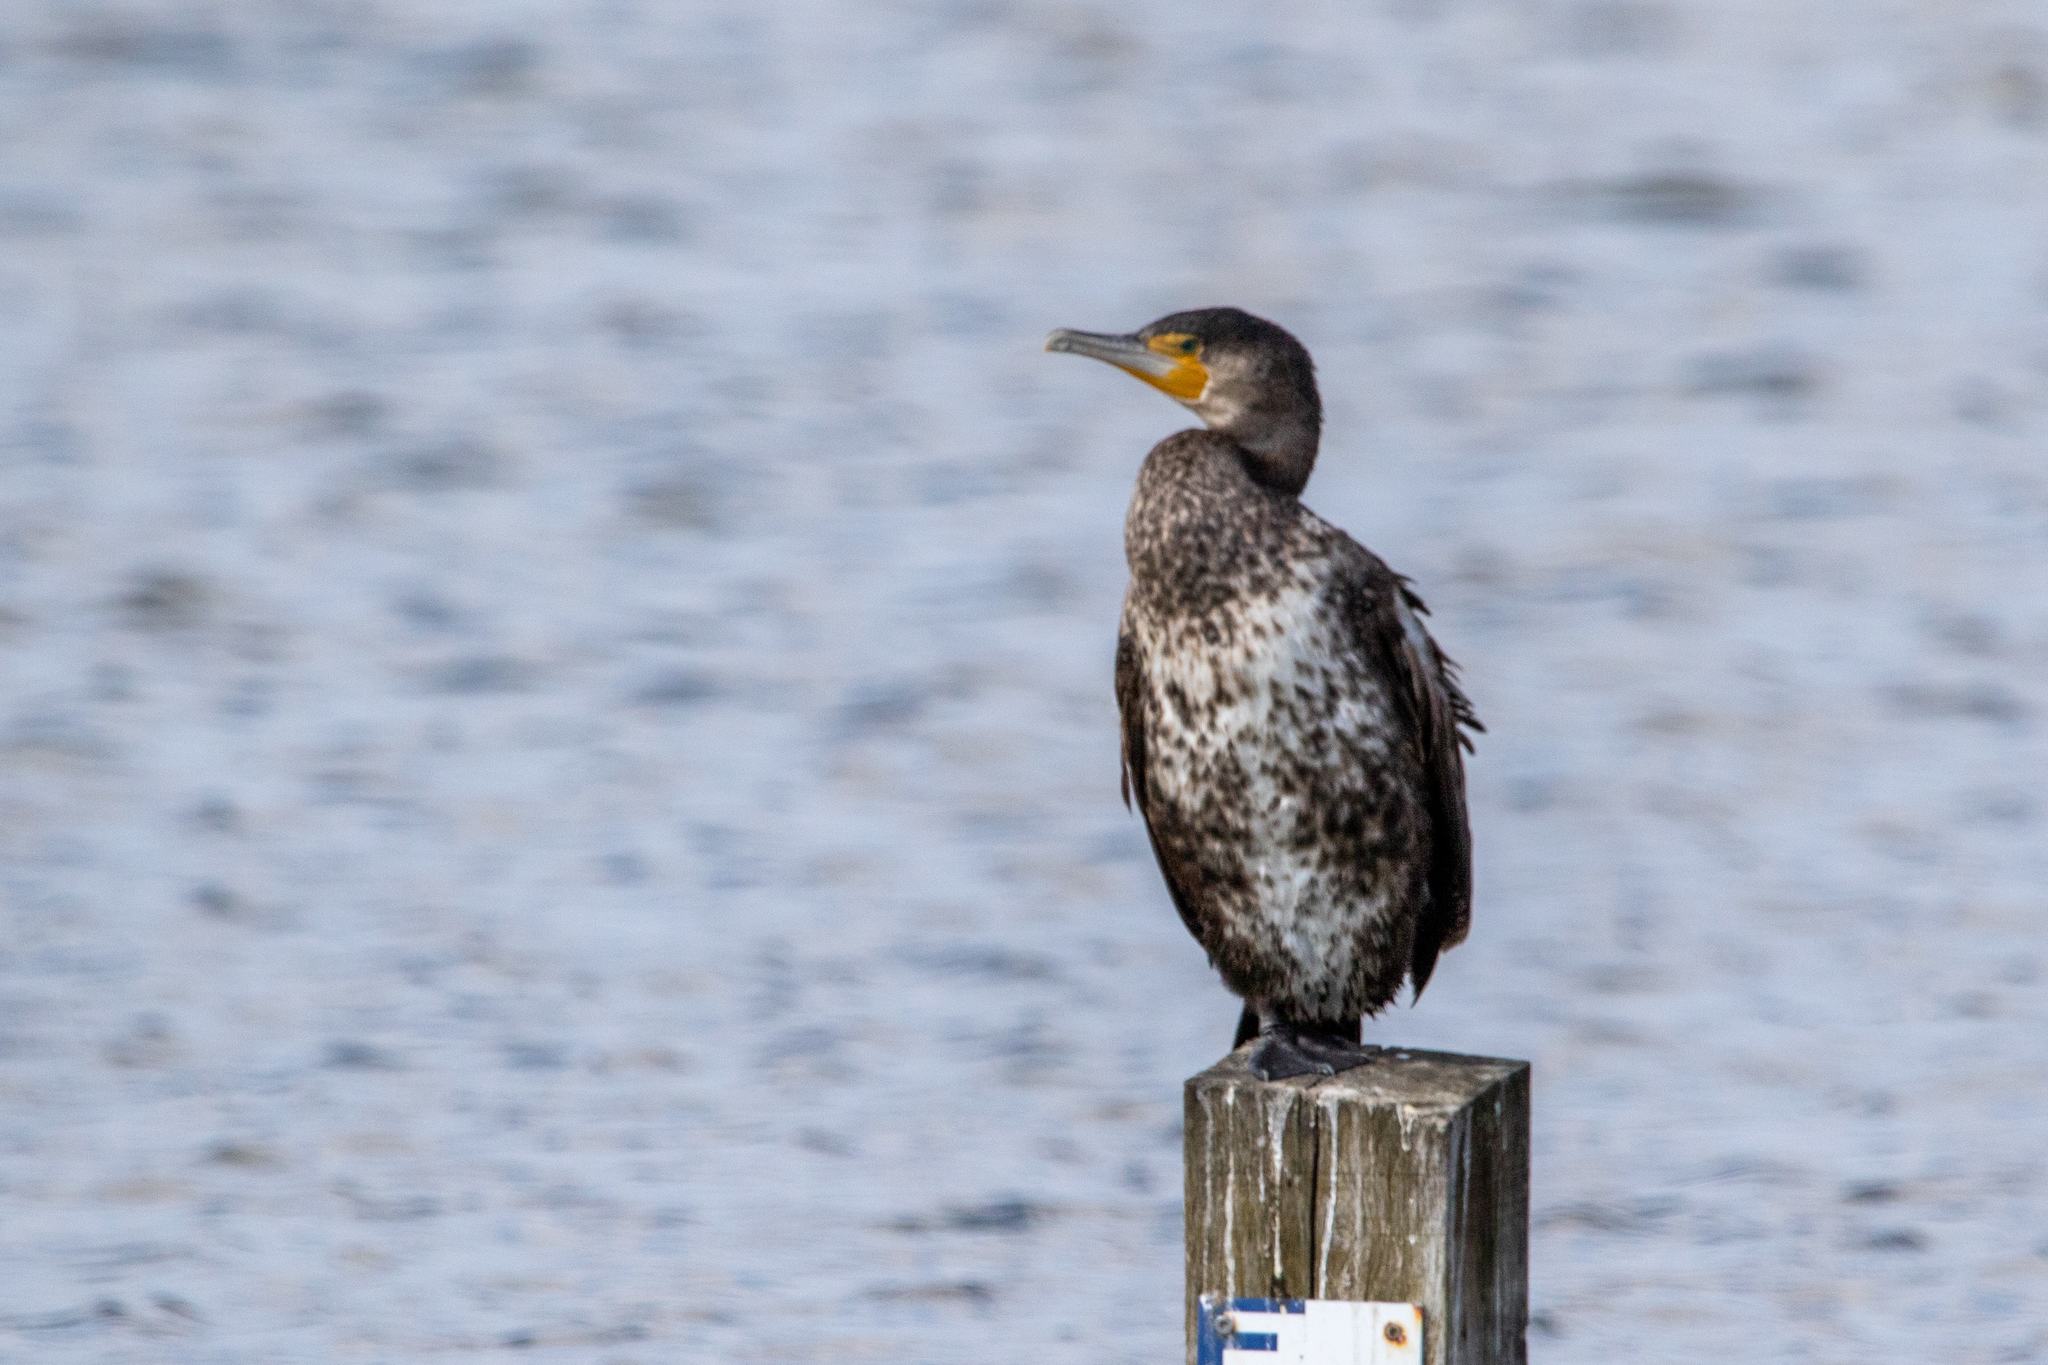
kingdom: Animalia
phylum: Chordata
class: Aves
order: Suliformes
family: Phalacrocoracidae
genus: Phalacrocorax
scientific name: Phalacrocorax carbo
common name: Great cormorant
